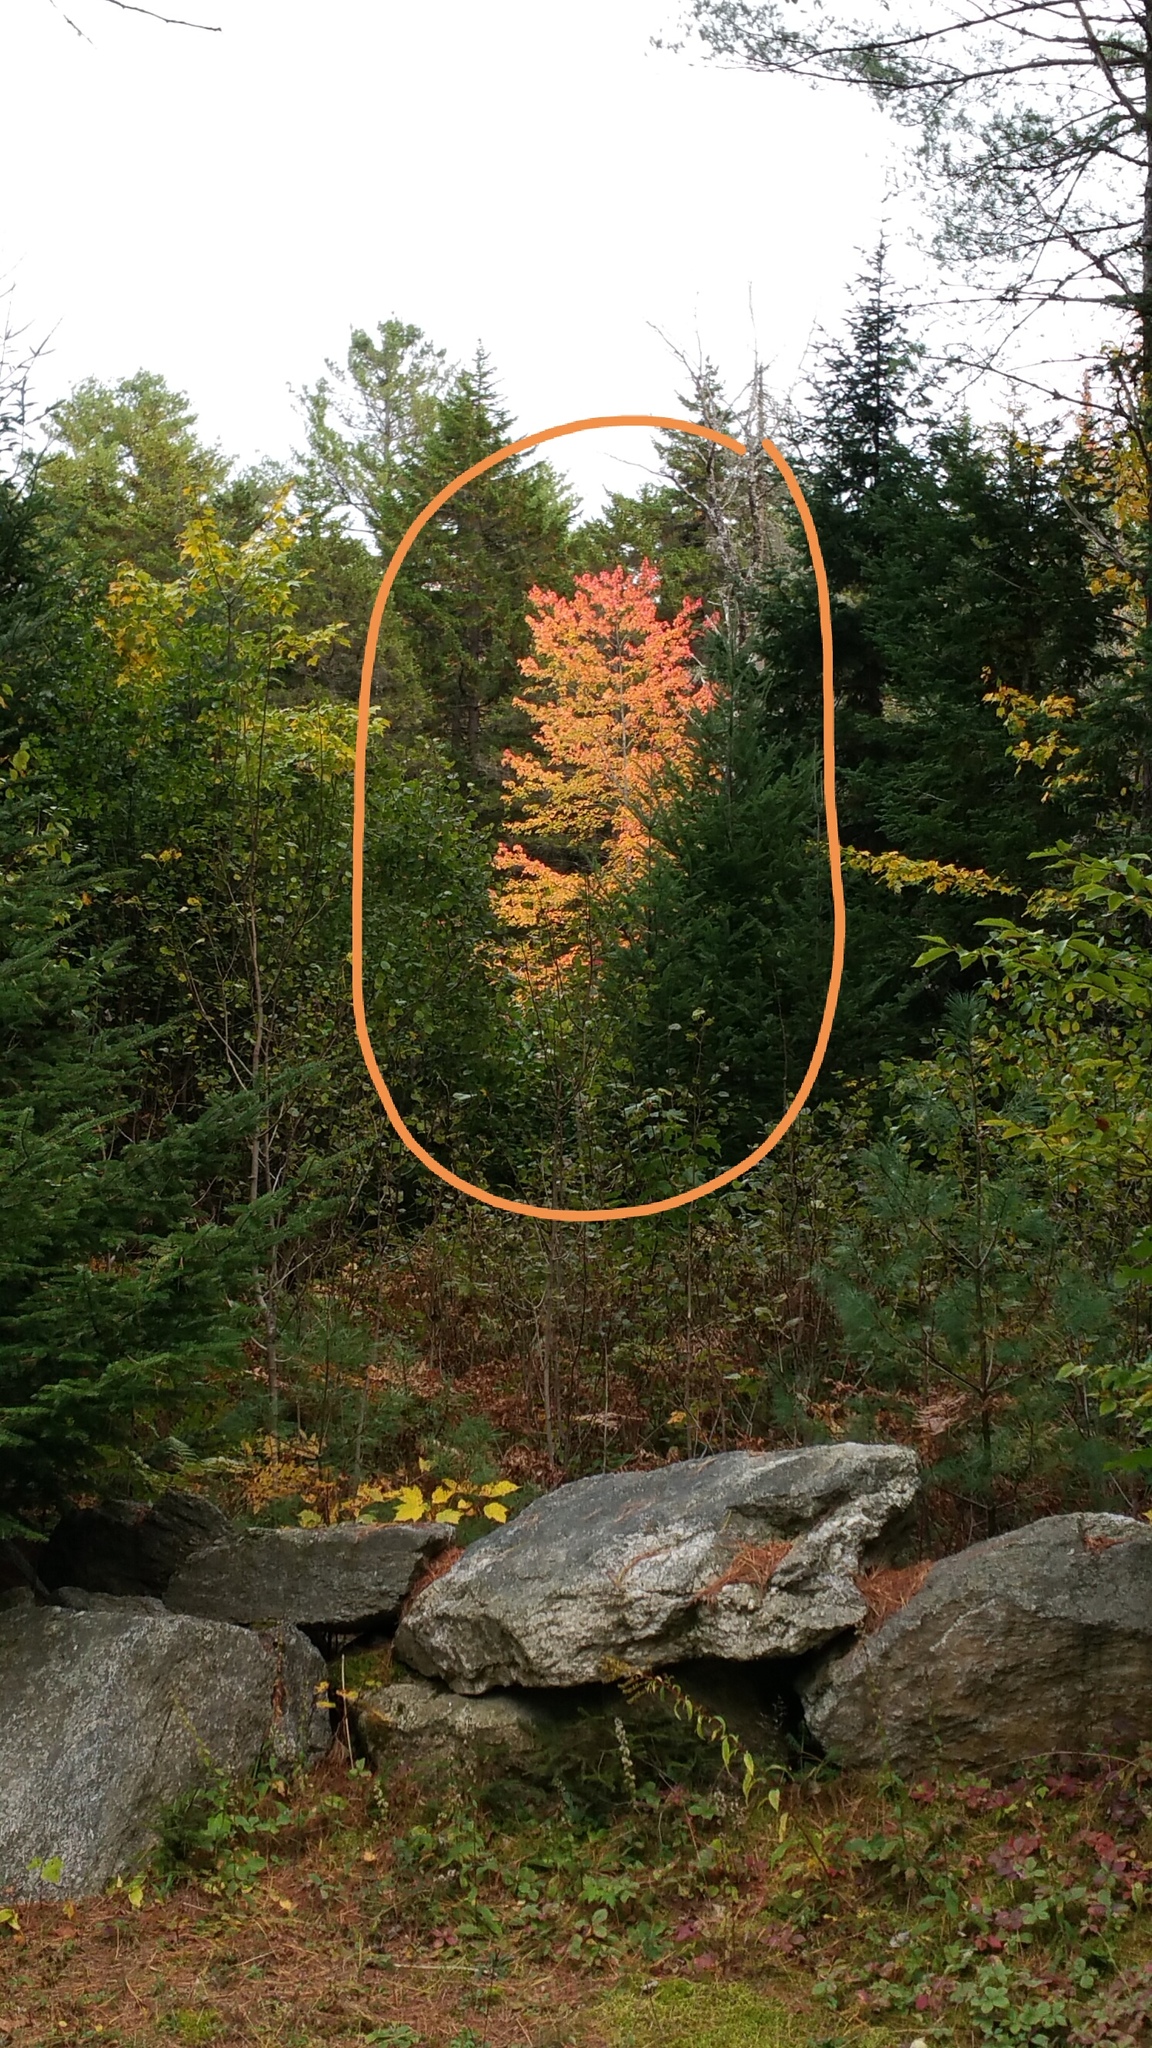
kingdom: Plantae
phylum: Tracheophyta
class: Magnoliopsida
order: Sapindales
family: Sapindaceae
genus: Acer
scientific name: Acer rubrum
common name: Red maple
